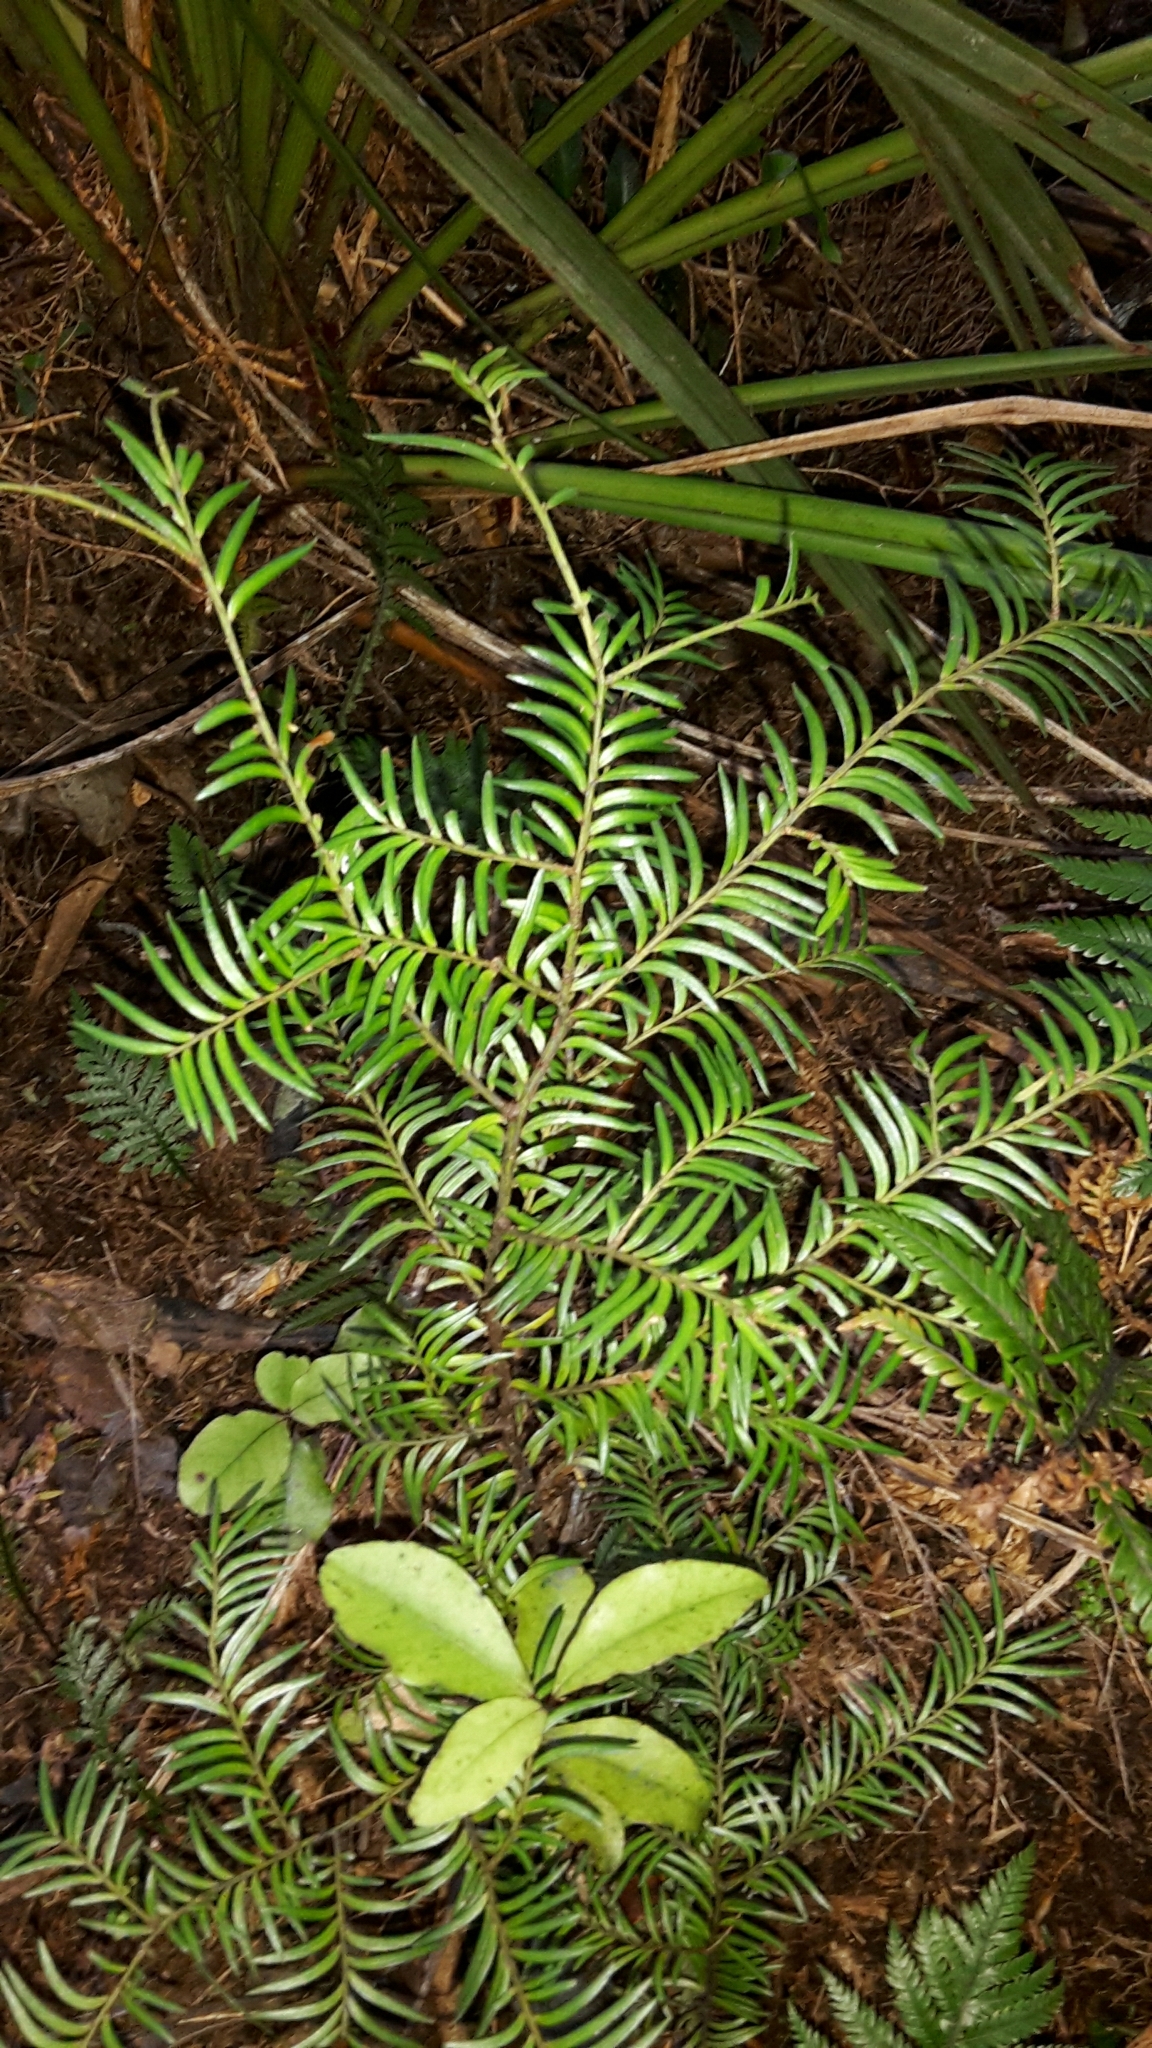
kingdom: Plantae
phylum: Tracheophyta
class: Pinopsida
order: Pinales
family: Podocarpaceae
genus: Prumnopitys
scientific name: Prumnopitys ferruginea
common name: Brown pine
